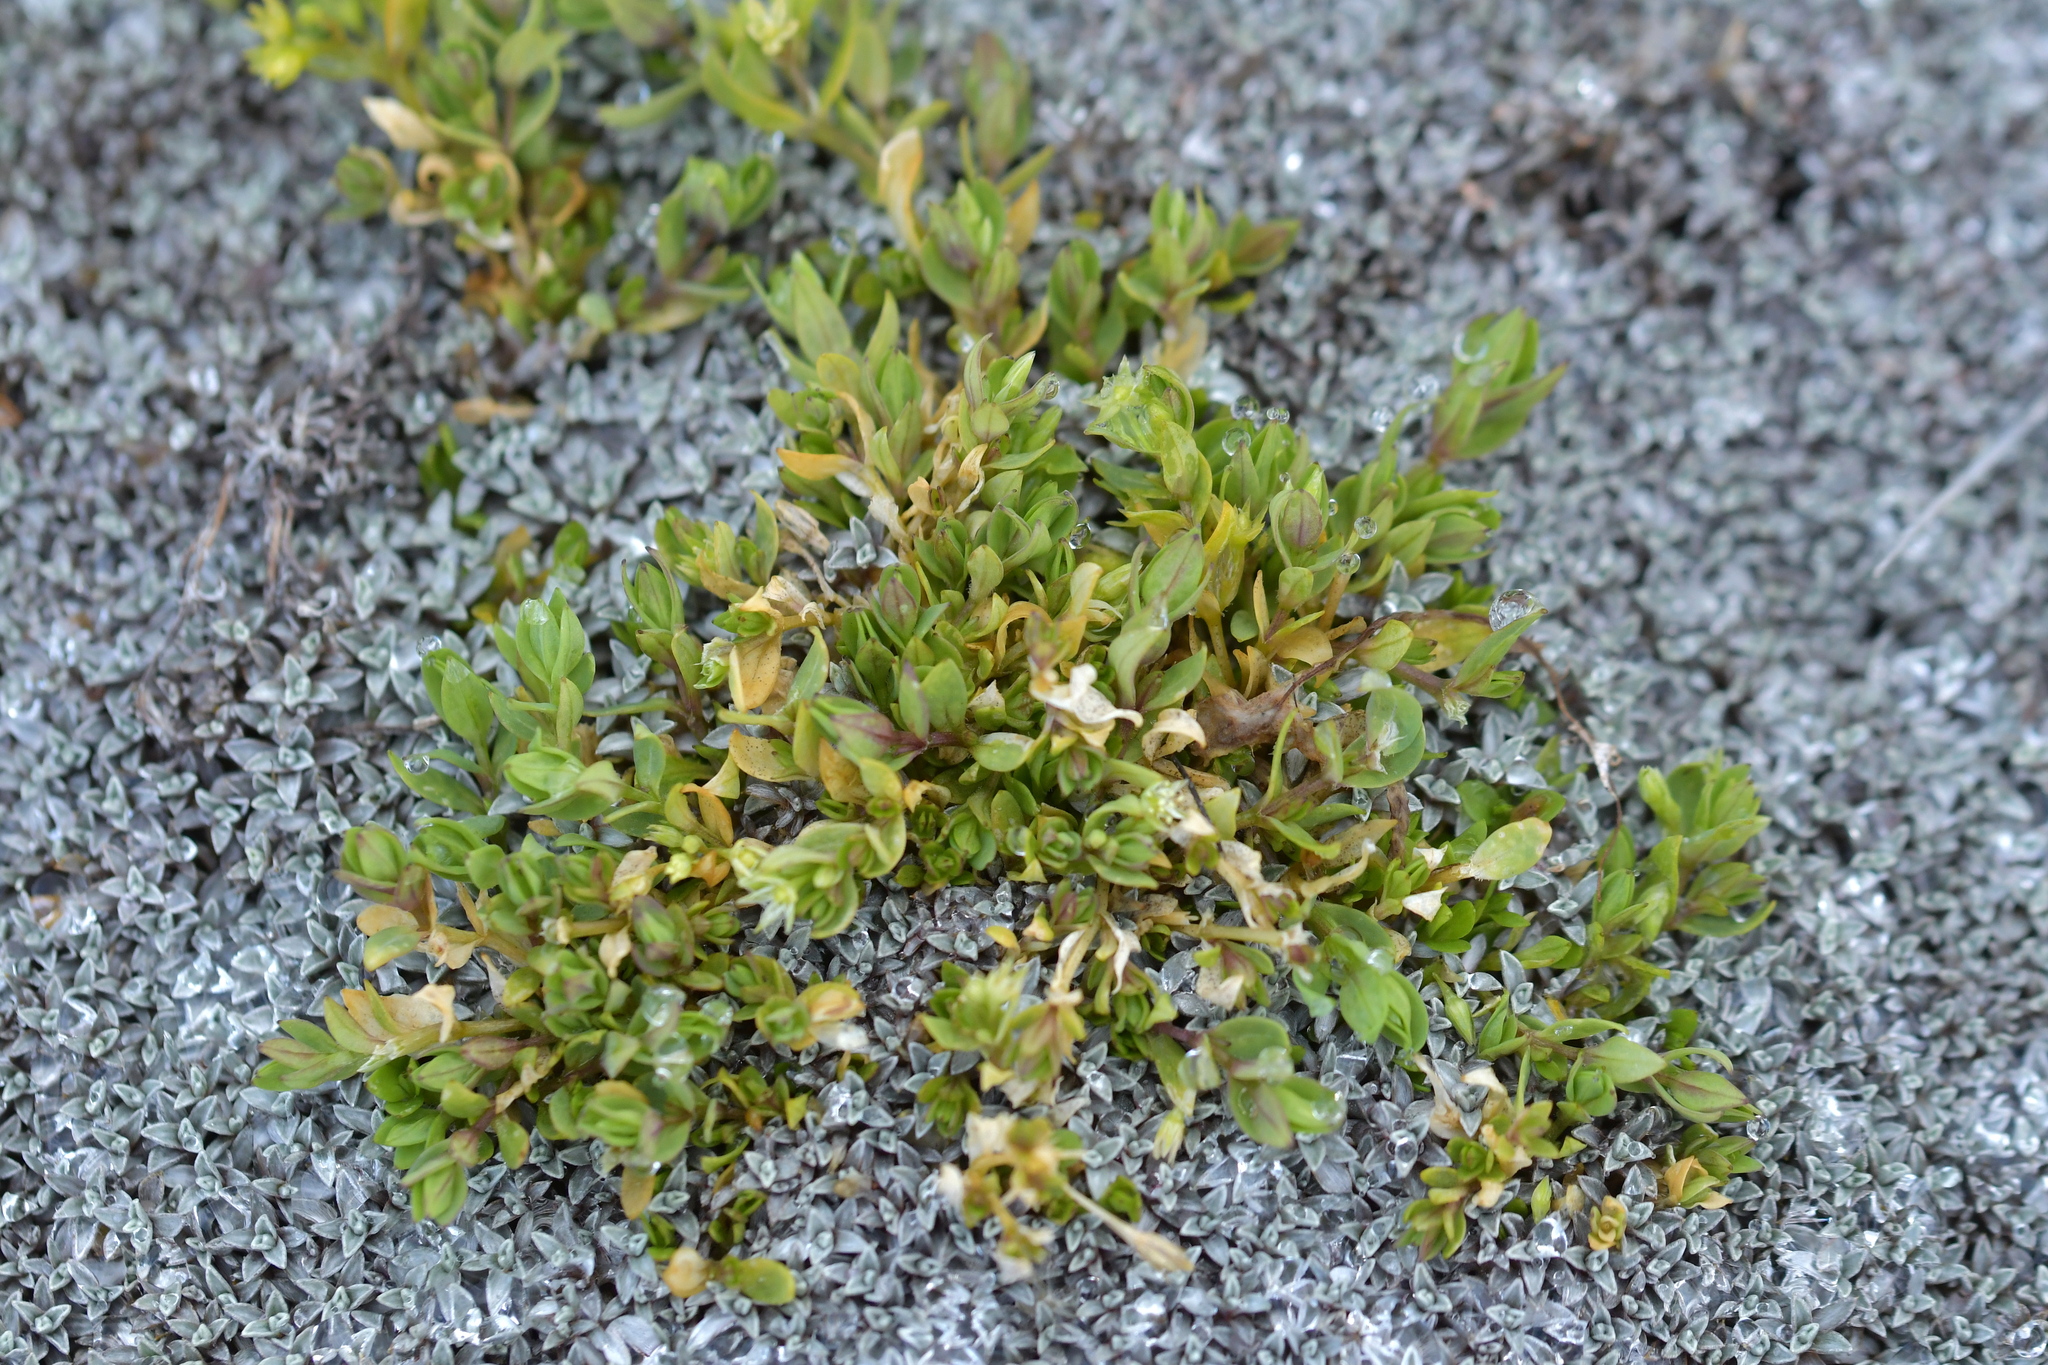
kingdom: Plantae
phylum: Tracheophyta
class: Magnoliopsida
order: Caryophyllales
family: Caryophyllaceae
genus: Stellaria
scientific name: Stellaria alsine
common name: Bog stitchwort
